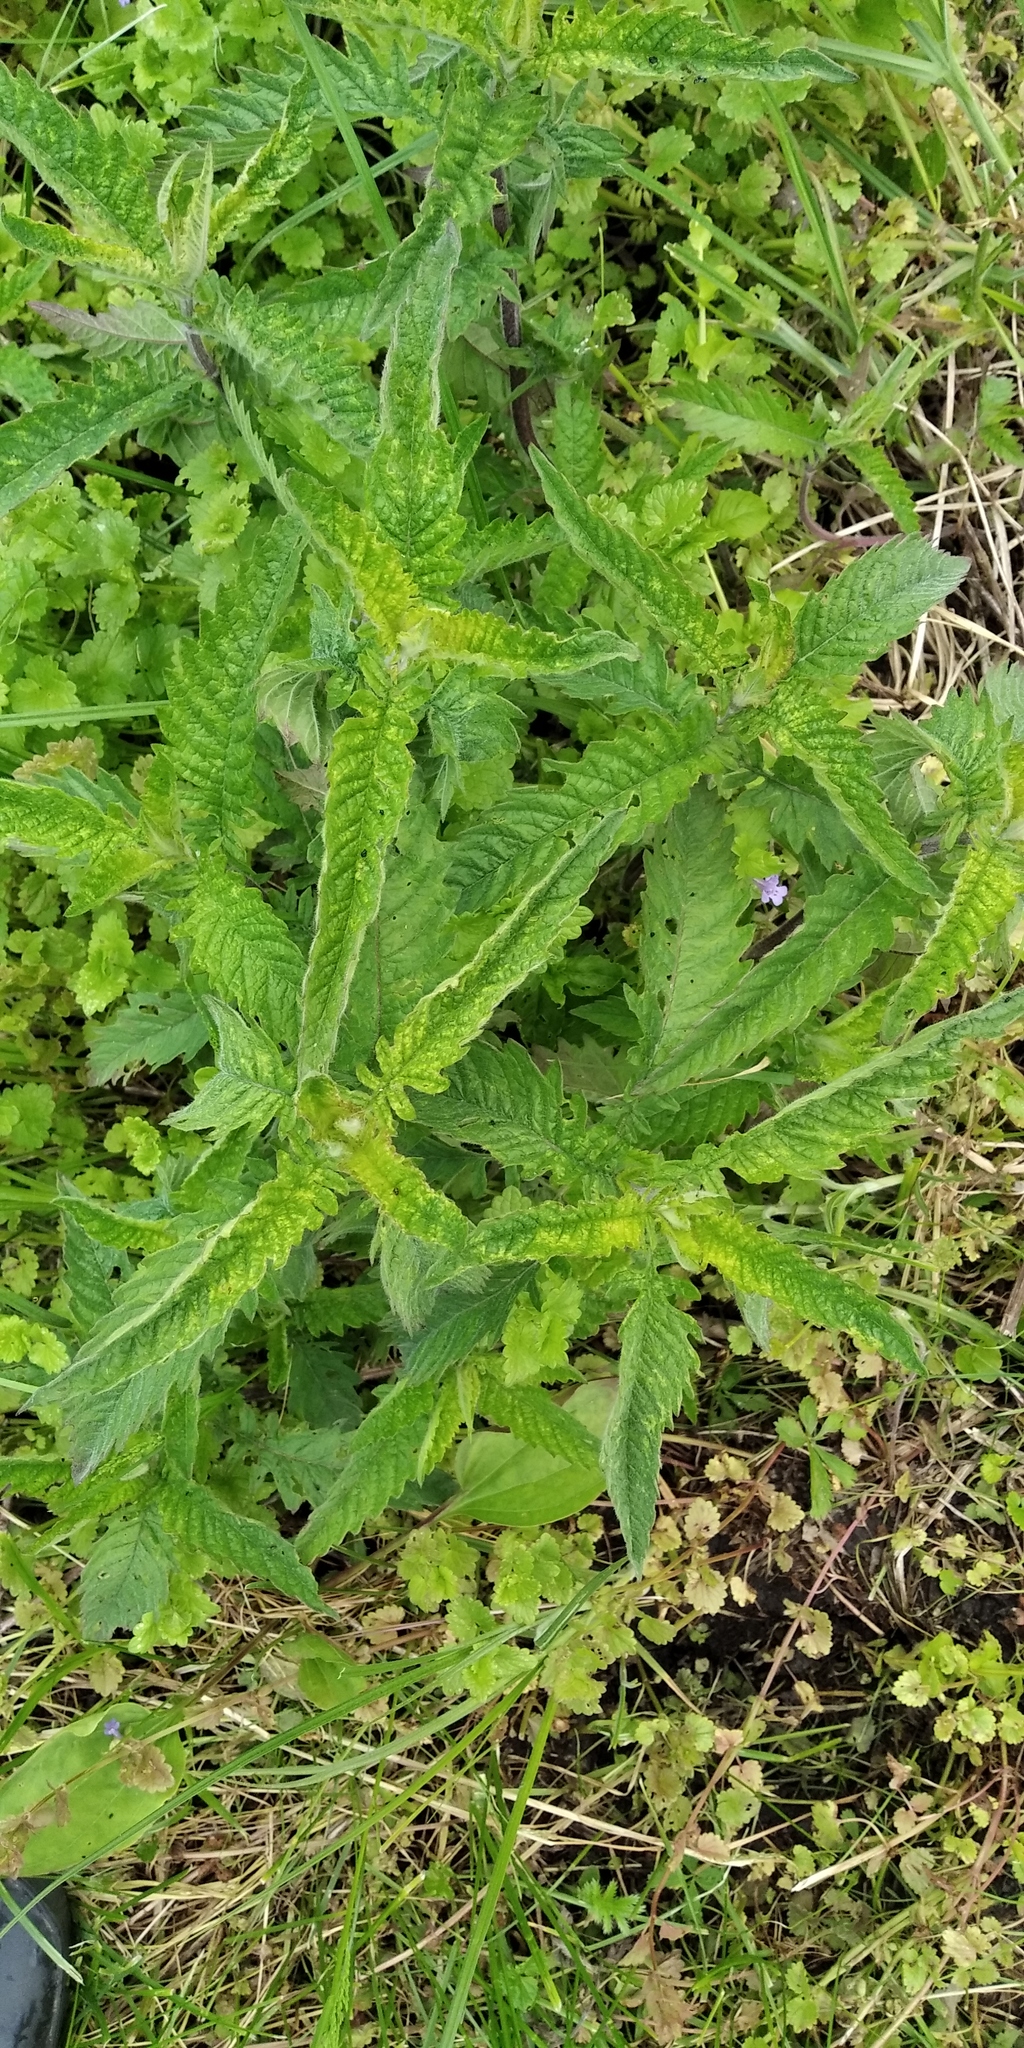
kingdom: Plantae
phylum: Tracheophyta
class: Magnoliopsida
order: Lamiales
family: Lamiaceae
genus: Lycopus
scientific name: Lycopus europaeus
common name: European bugleweed
